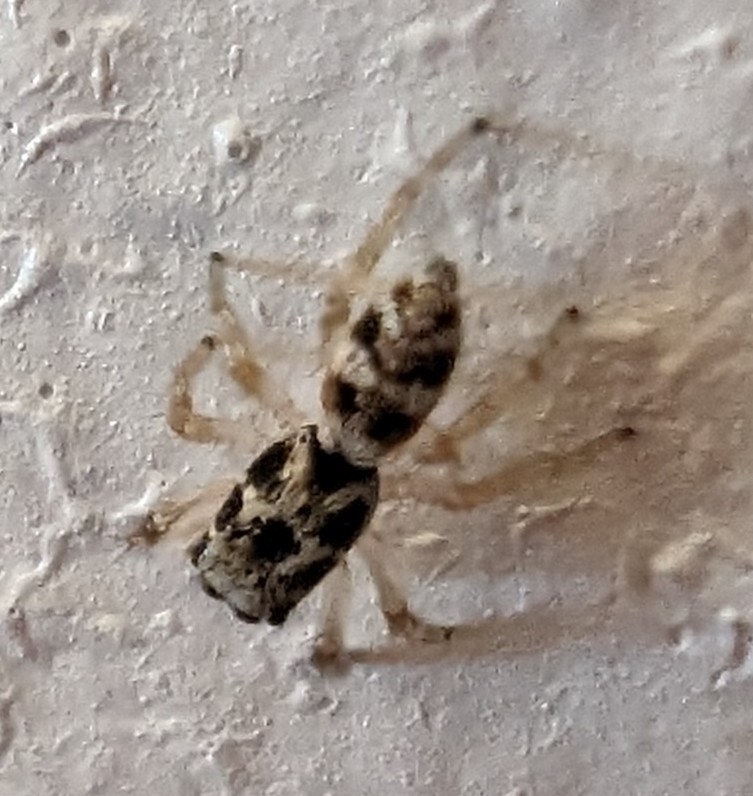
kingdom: Animalia
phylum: Arthropoda
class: Arachnida
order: Araneae
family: Salticidae
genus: Salticus
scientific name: Salticus scenicus
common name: Zebra jumper
